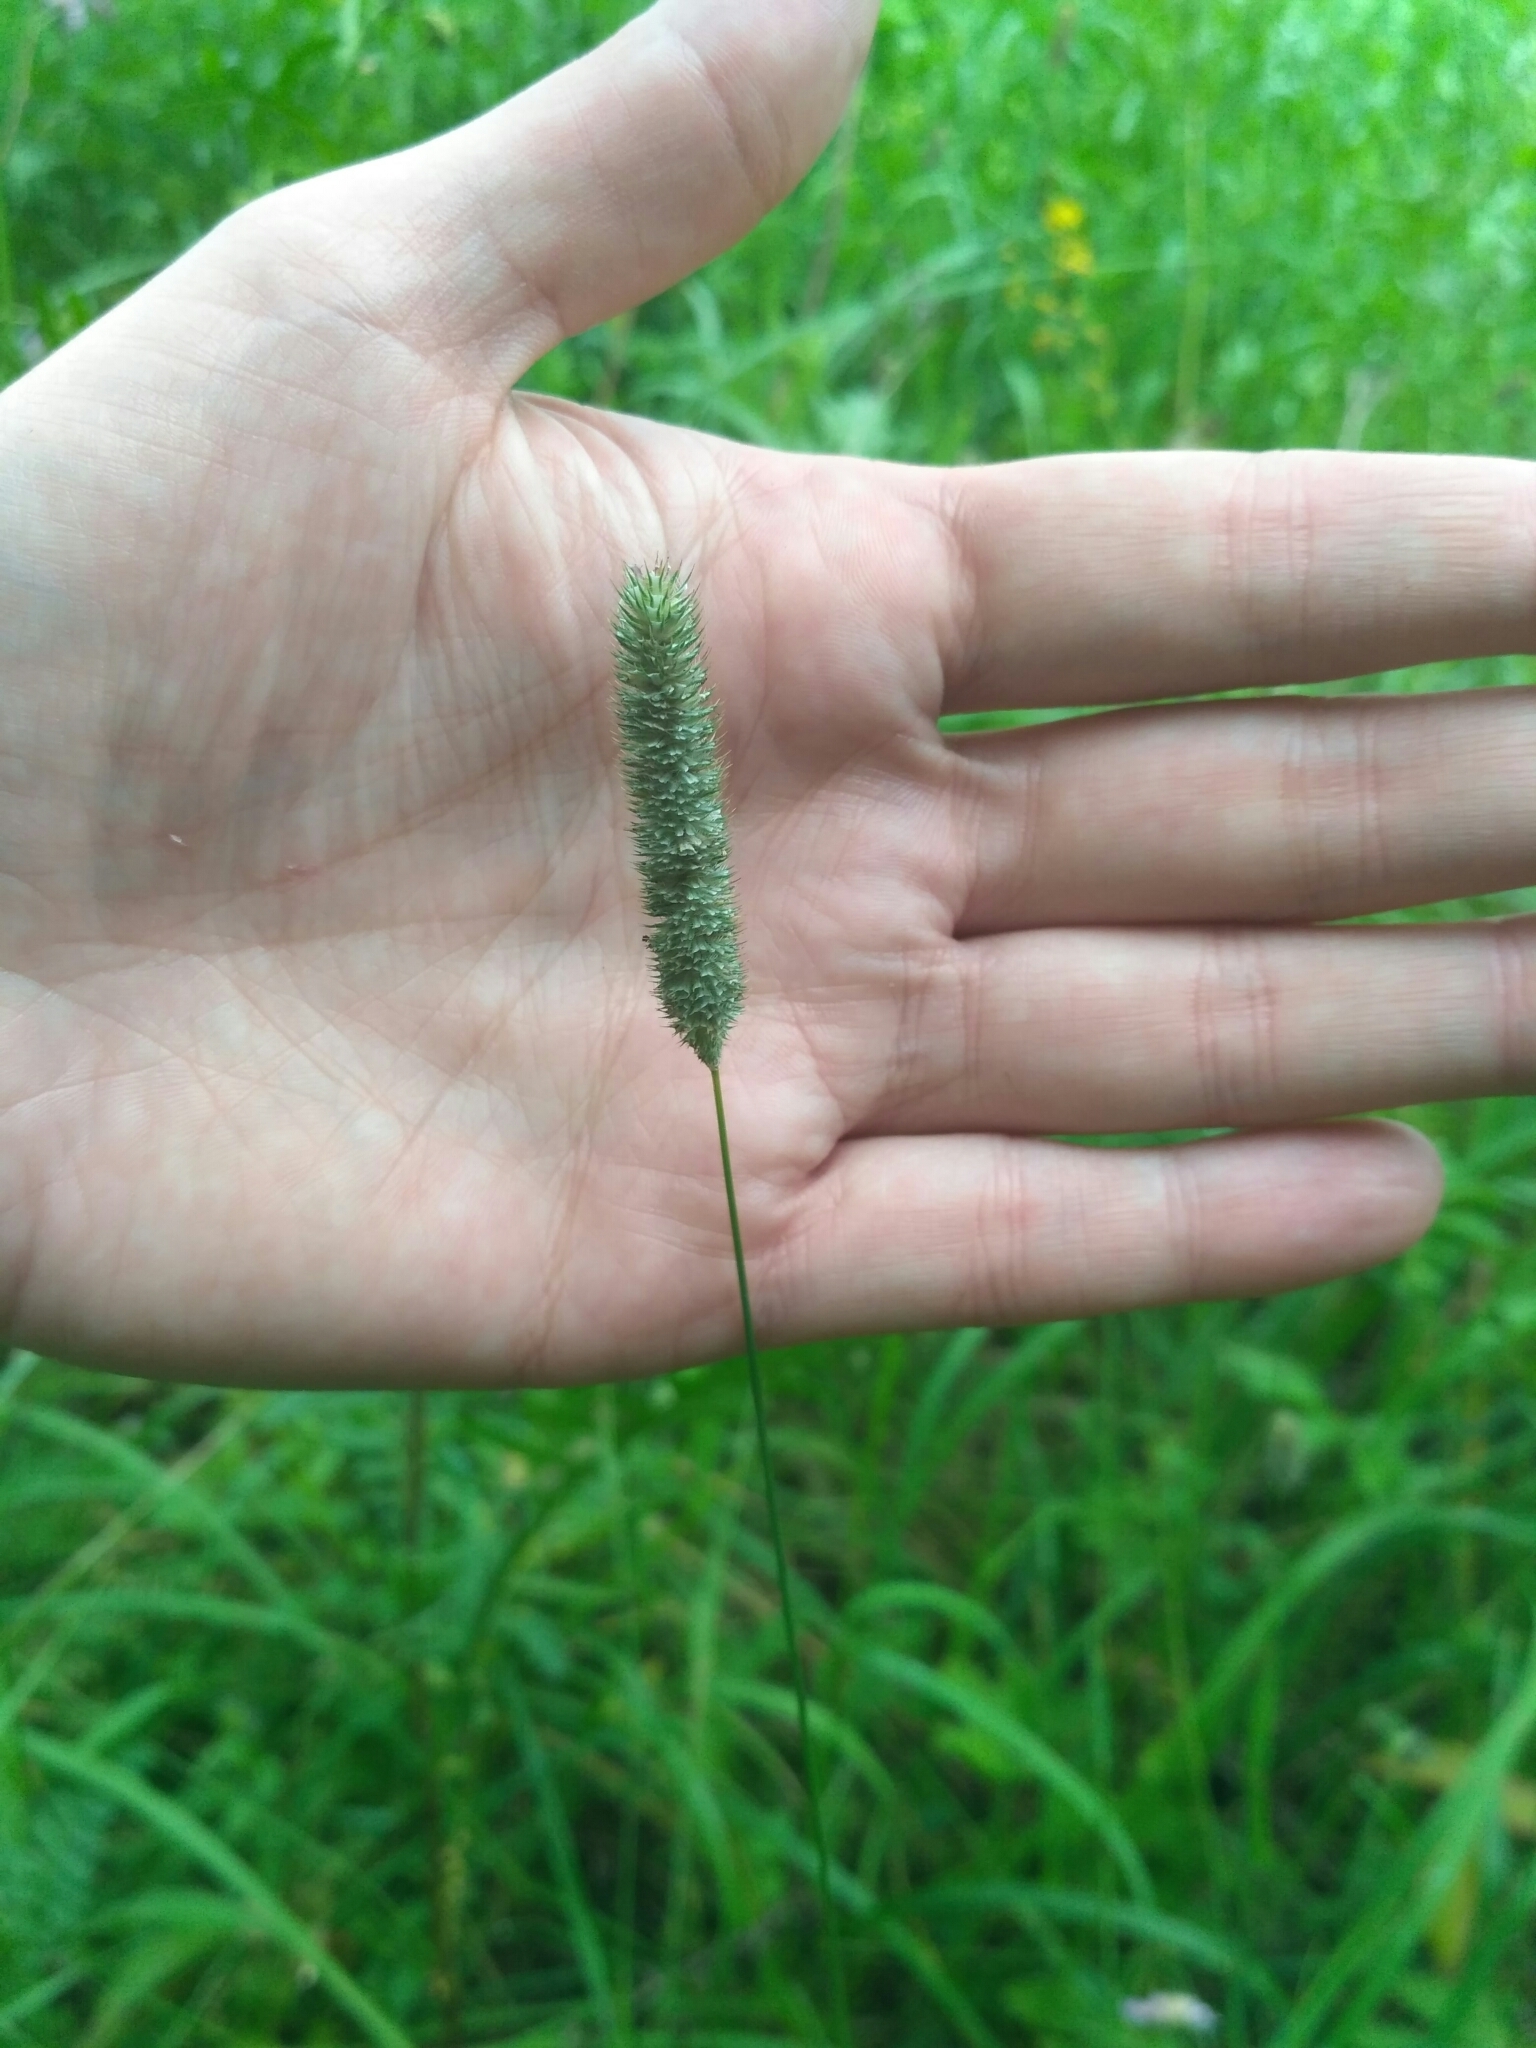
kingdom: Plantae
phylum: Tracheophyta
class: Liliopsida
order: Poales
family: Poaceae
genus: Phleum
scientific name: Phleum pratense
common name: Timothy grass
